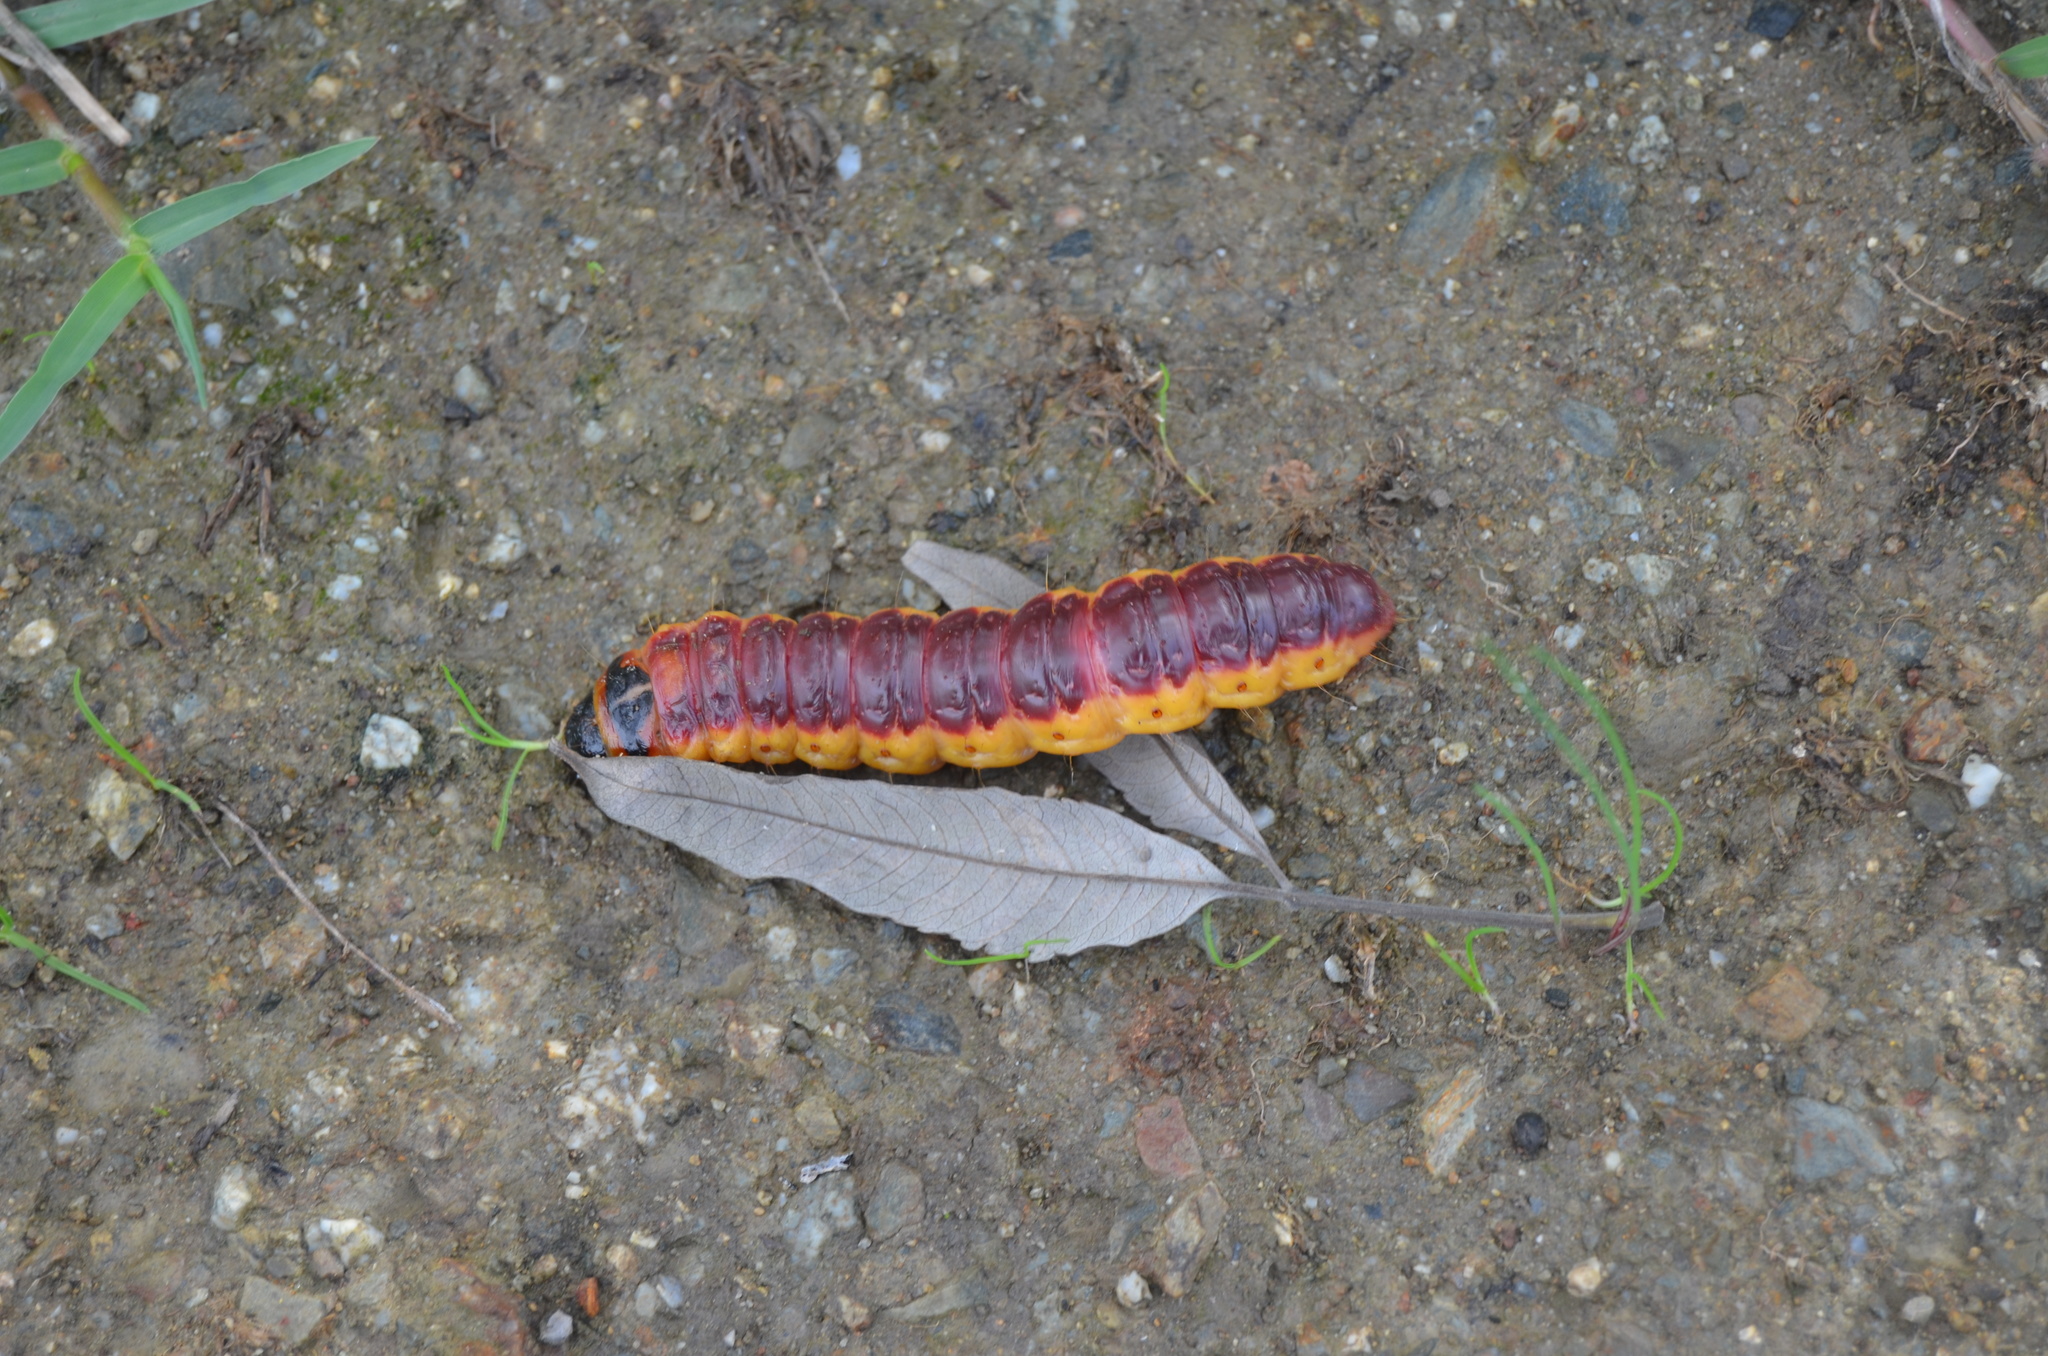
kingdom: Animalia
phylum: Arthropoda
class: Insecta
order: Lepidoptera
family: Cossidae
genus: Cossus
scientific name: Cossus cossus
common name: Goat moth
